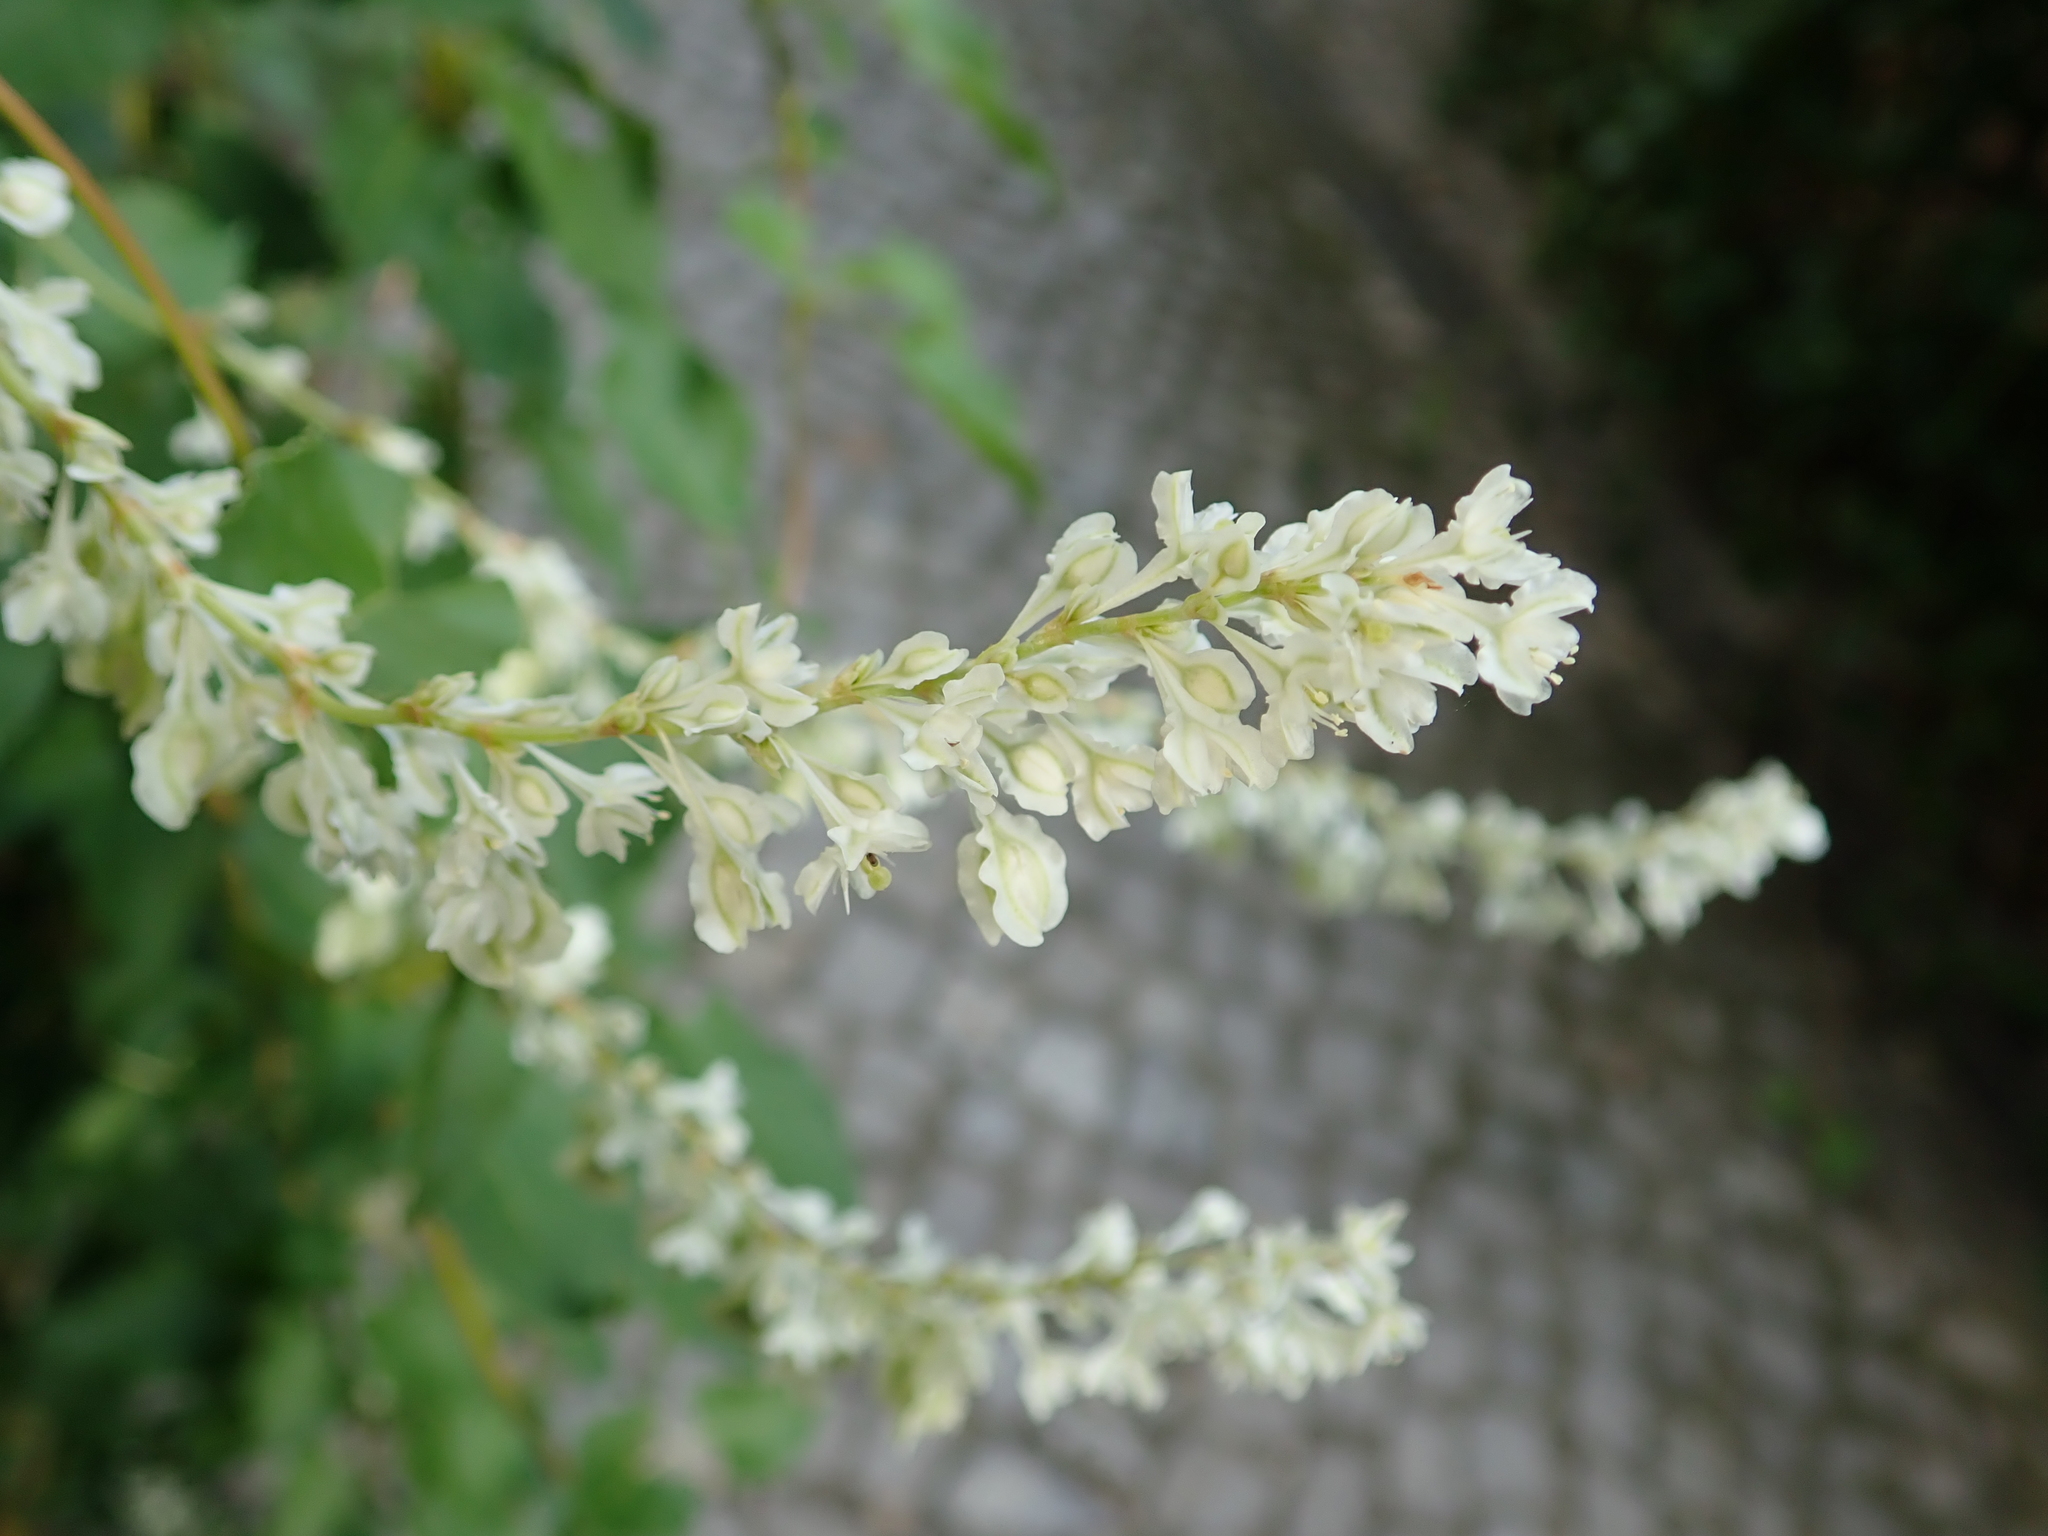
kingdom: Plantae
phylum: Tracheophyta
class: Magnoliopsida
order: Caryophyllales
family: Polygonaceae
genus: Fallopia
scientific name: Fallopia baldschuanica
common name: Russian-vine
